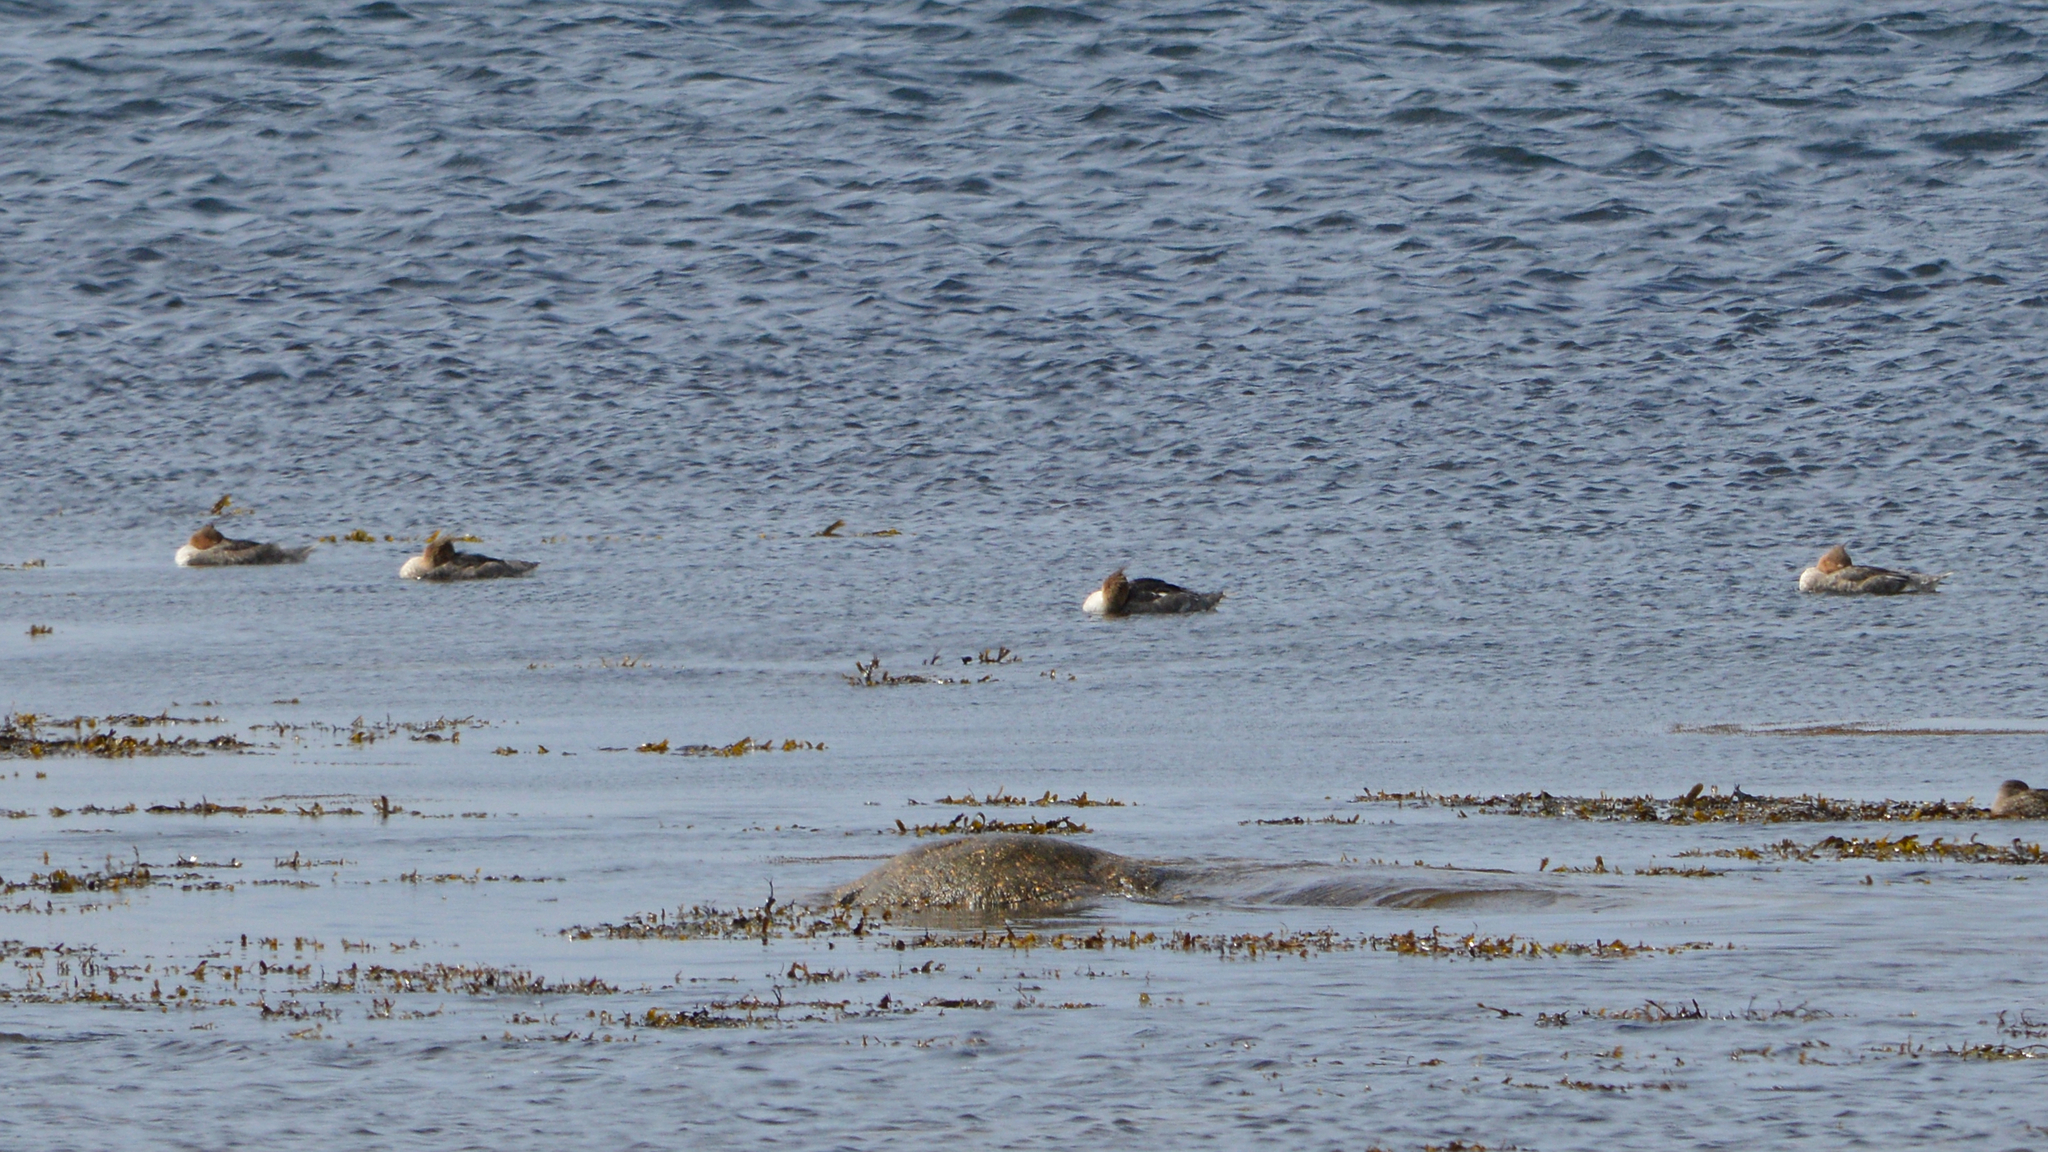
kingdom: Animalia
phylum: Chordata
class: Aves
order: Anseriformes
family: Anatidae
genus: Mergus
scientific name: Mergus serrator
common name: Red-breasted merganser
